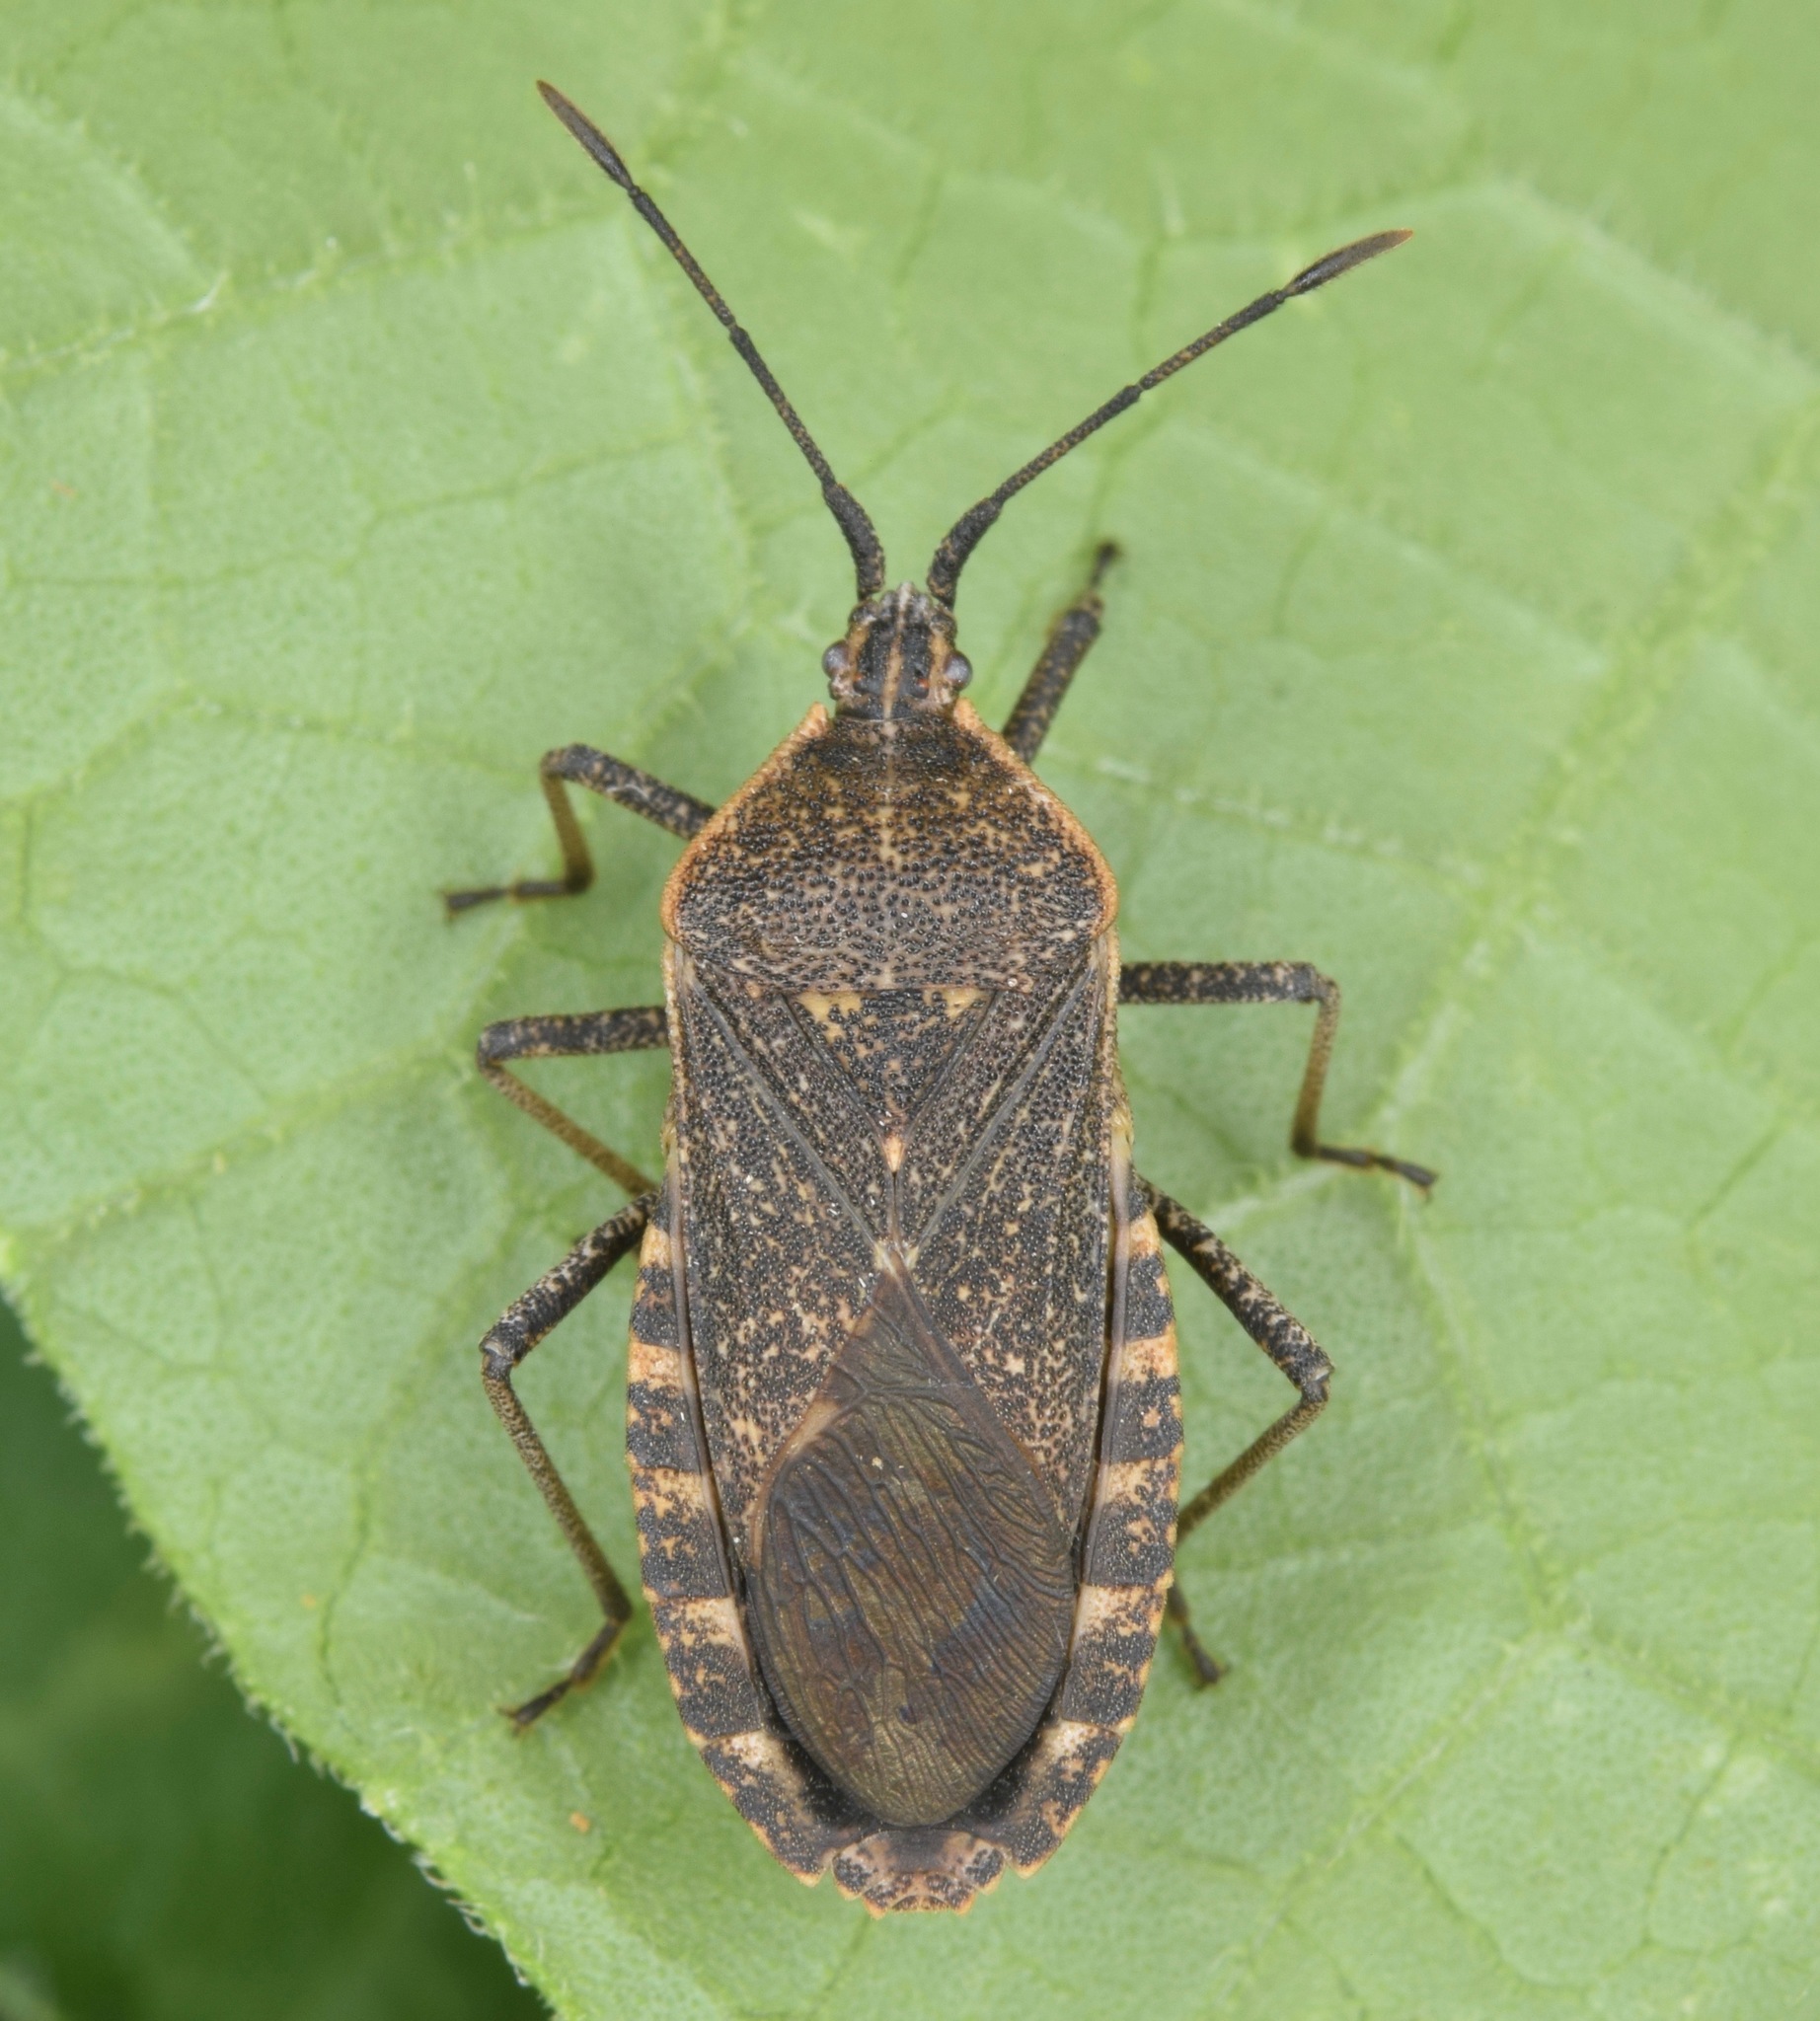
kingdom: Animalia
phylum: Arthropoda
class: Insecta
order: Hemiptera
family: Coreidae
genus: Anasa
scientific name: Anasa tristis
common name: Squash bug
